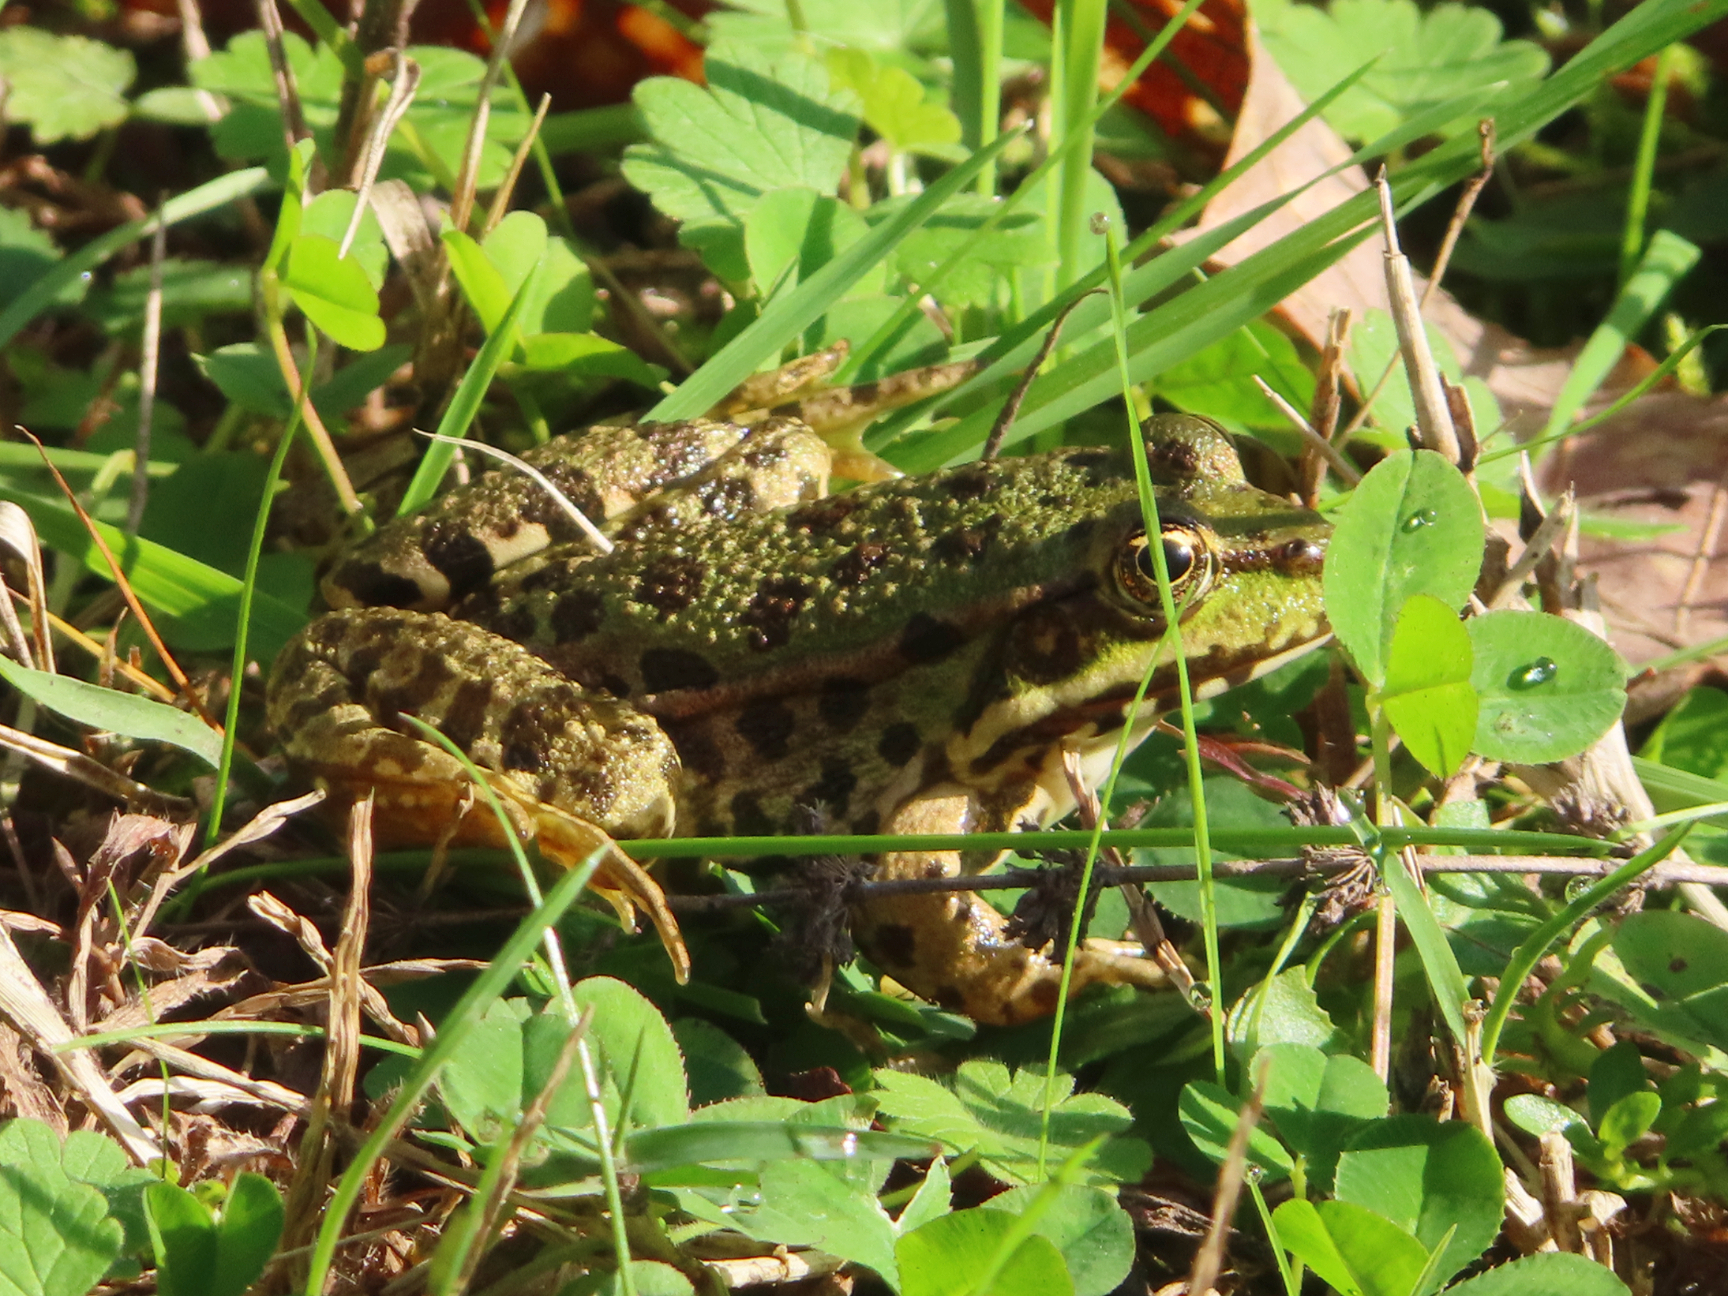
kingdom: Animalia
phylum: Chordata
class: Amphibia
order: Anura
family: Ranidae
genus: Pelophylax
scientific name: Pelophylax ridibundus
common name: Marsh frog
